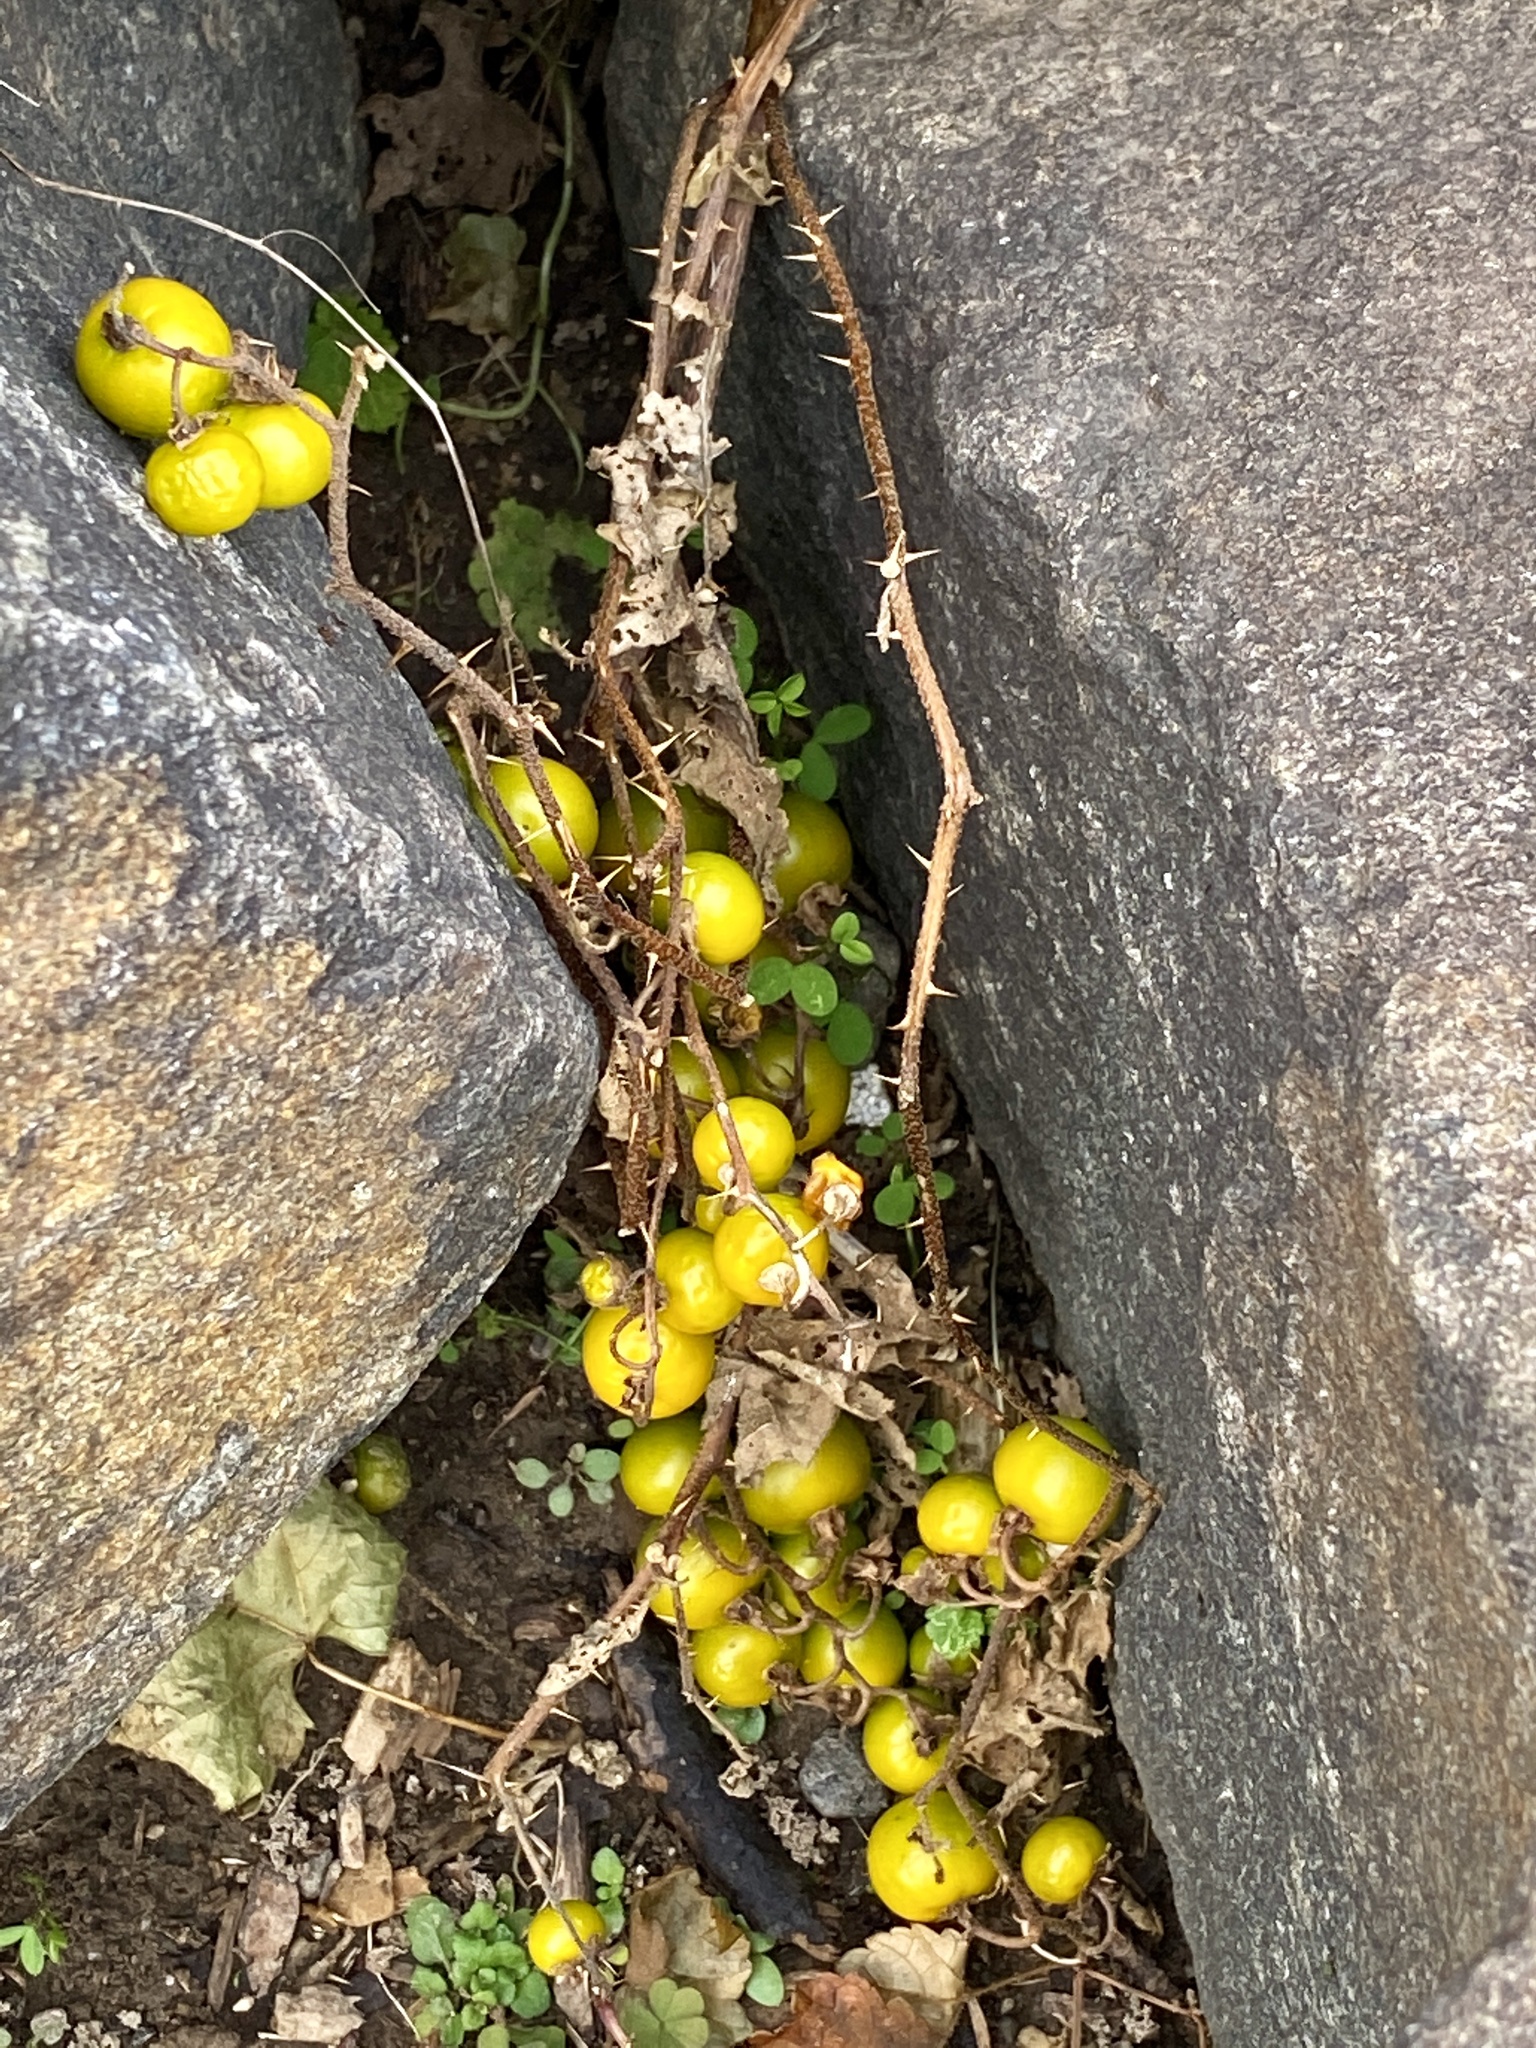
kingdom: Plantae
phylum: Tracheophyta
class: Magnoliopsida
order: Solanales
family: Solanaceae
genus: Solanum
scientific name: Solanum carolinense
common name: Horse-nettle
